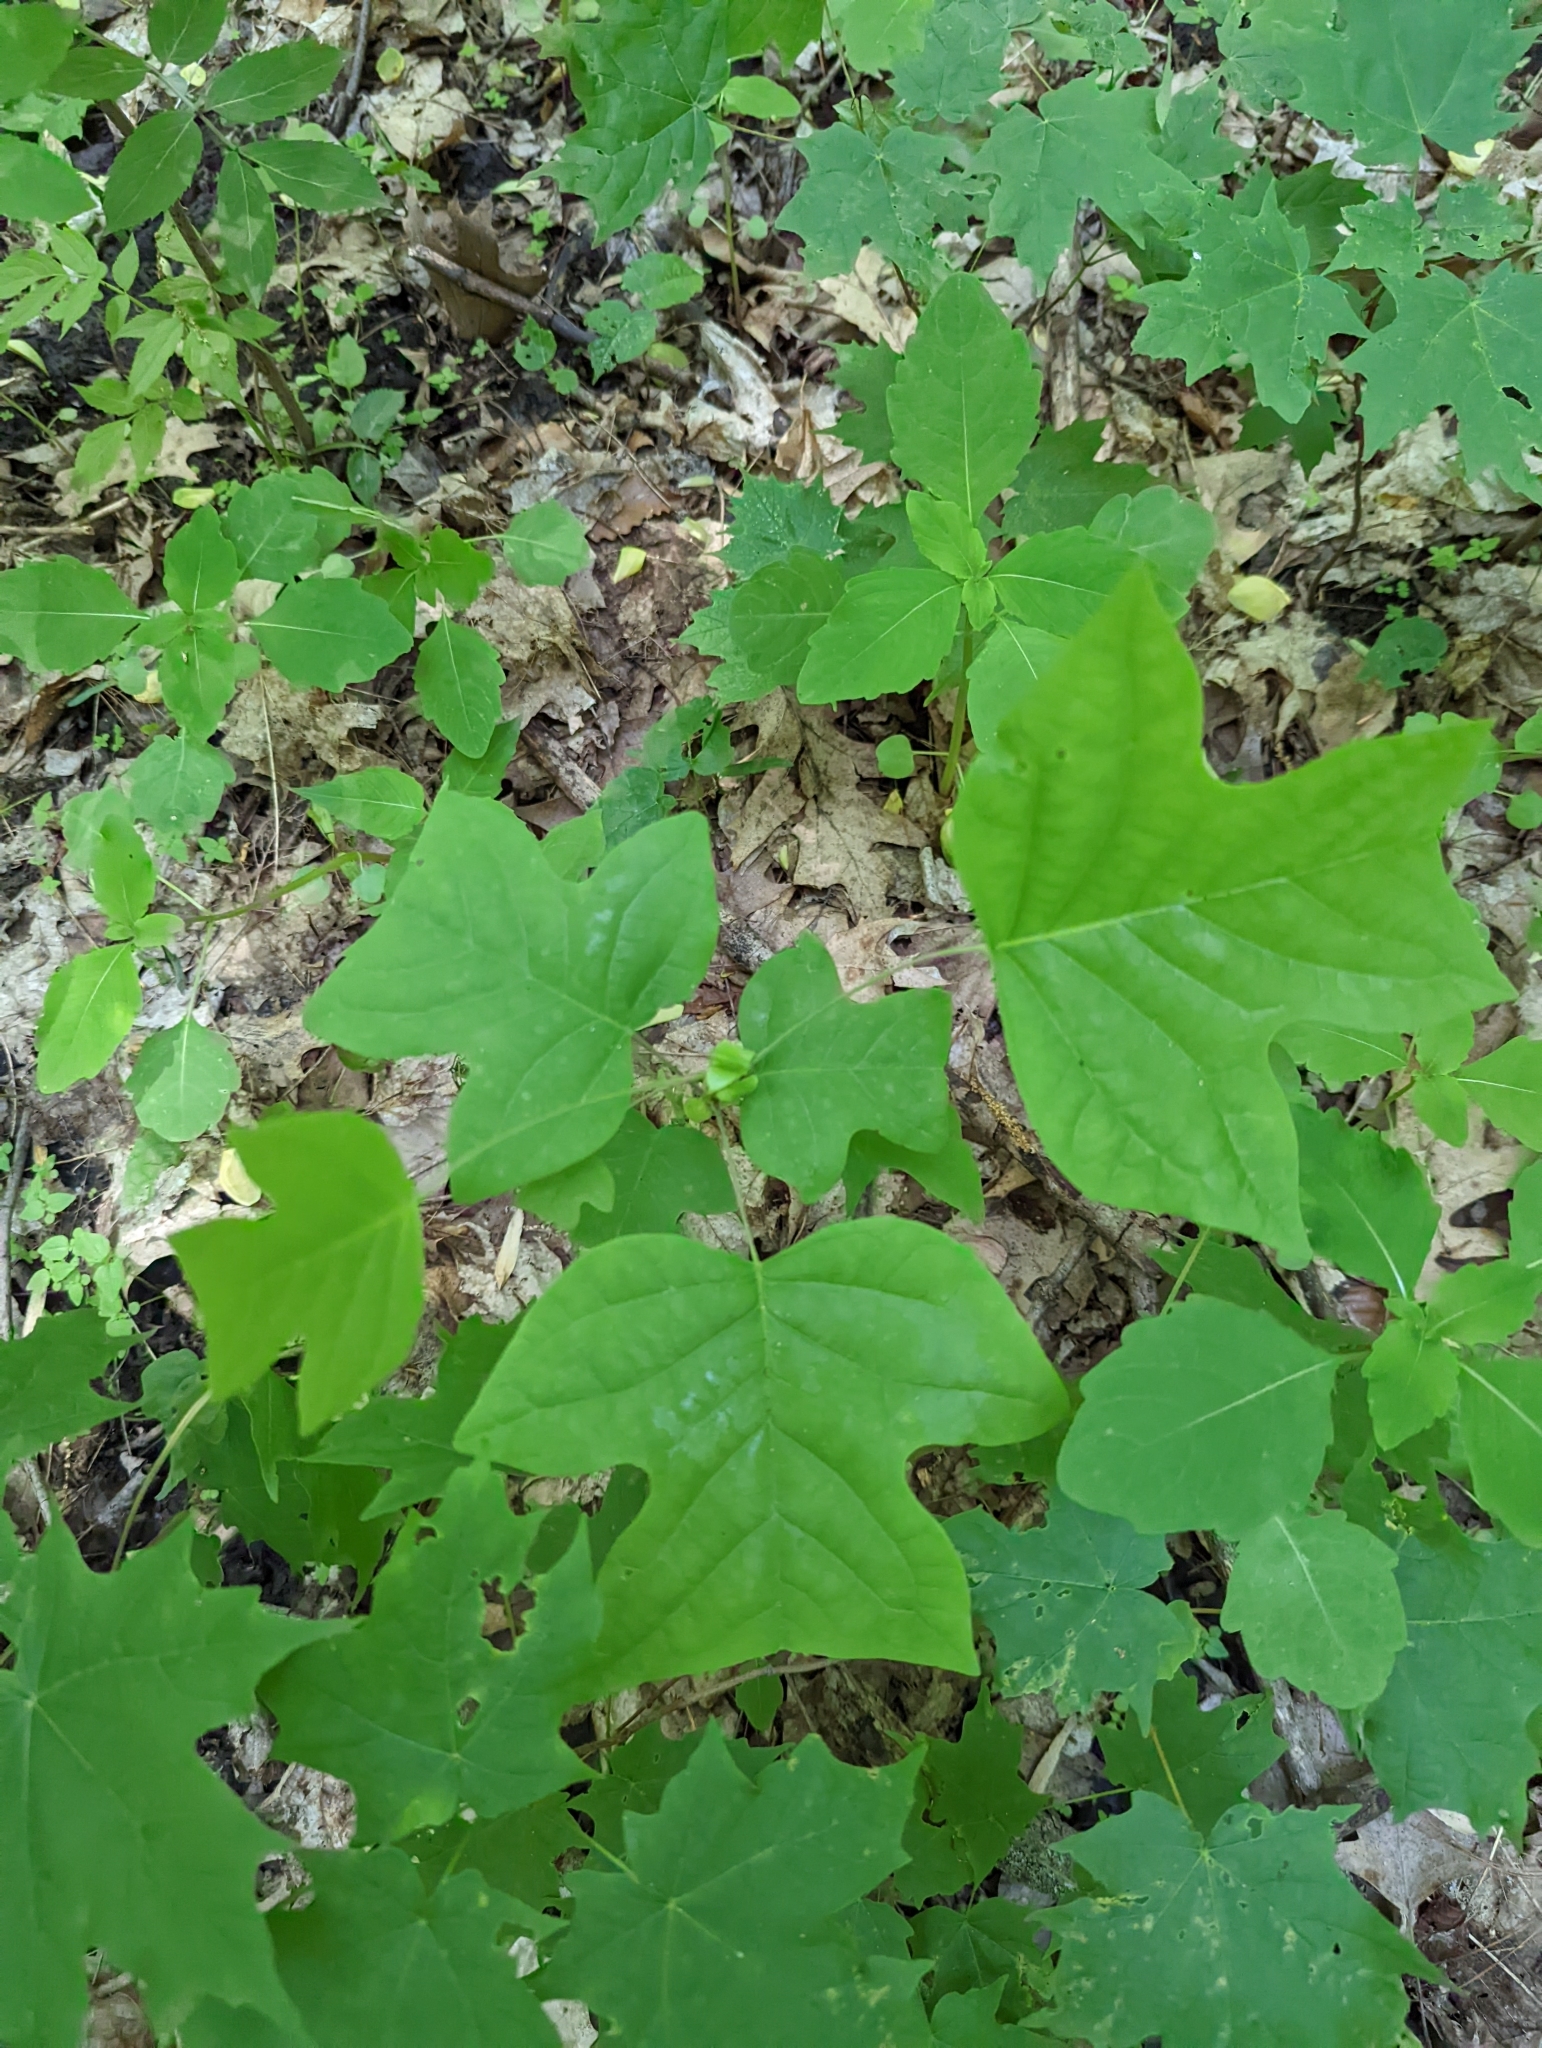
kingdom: Plantae
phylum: Tracheophyta
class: Magnoliopsida
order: Magnoliales
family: Magnoliaceae
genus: Liriodendron
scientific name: Liriodendron tulipifera
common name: Tulip tree
